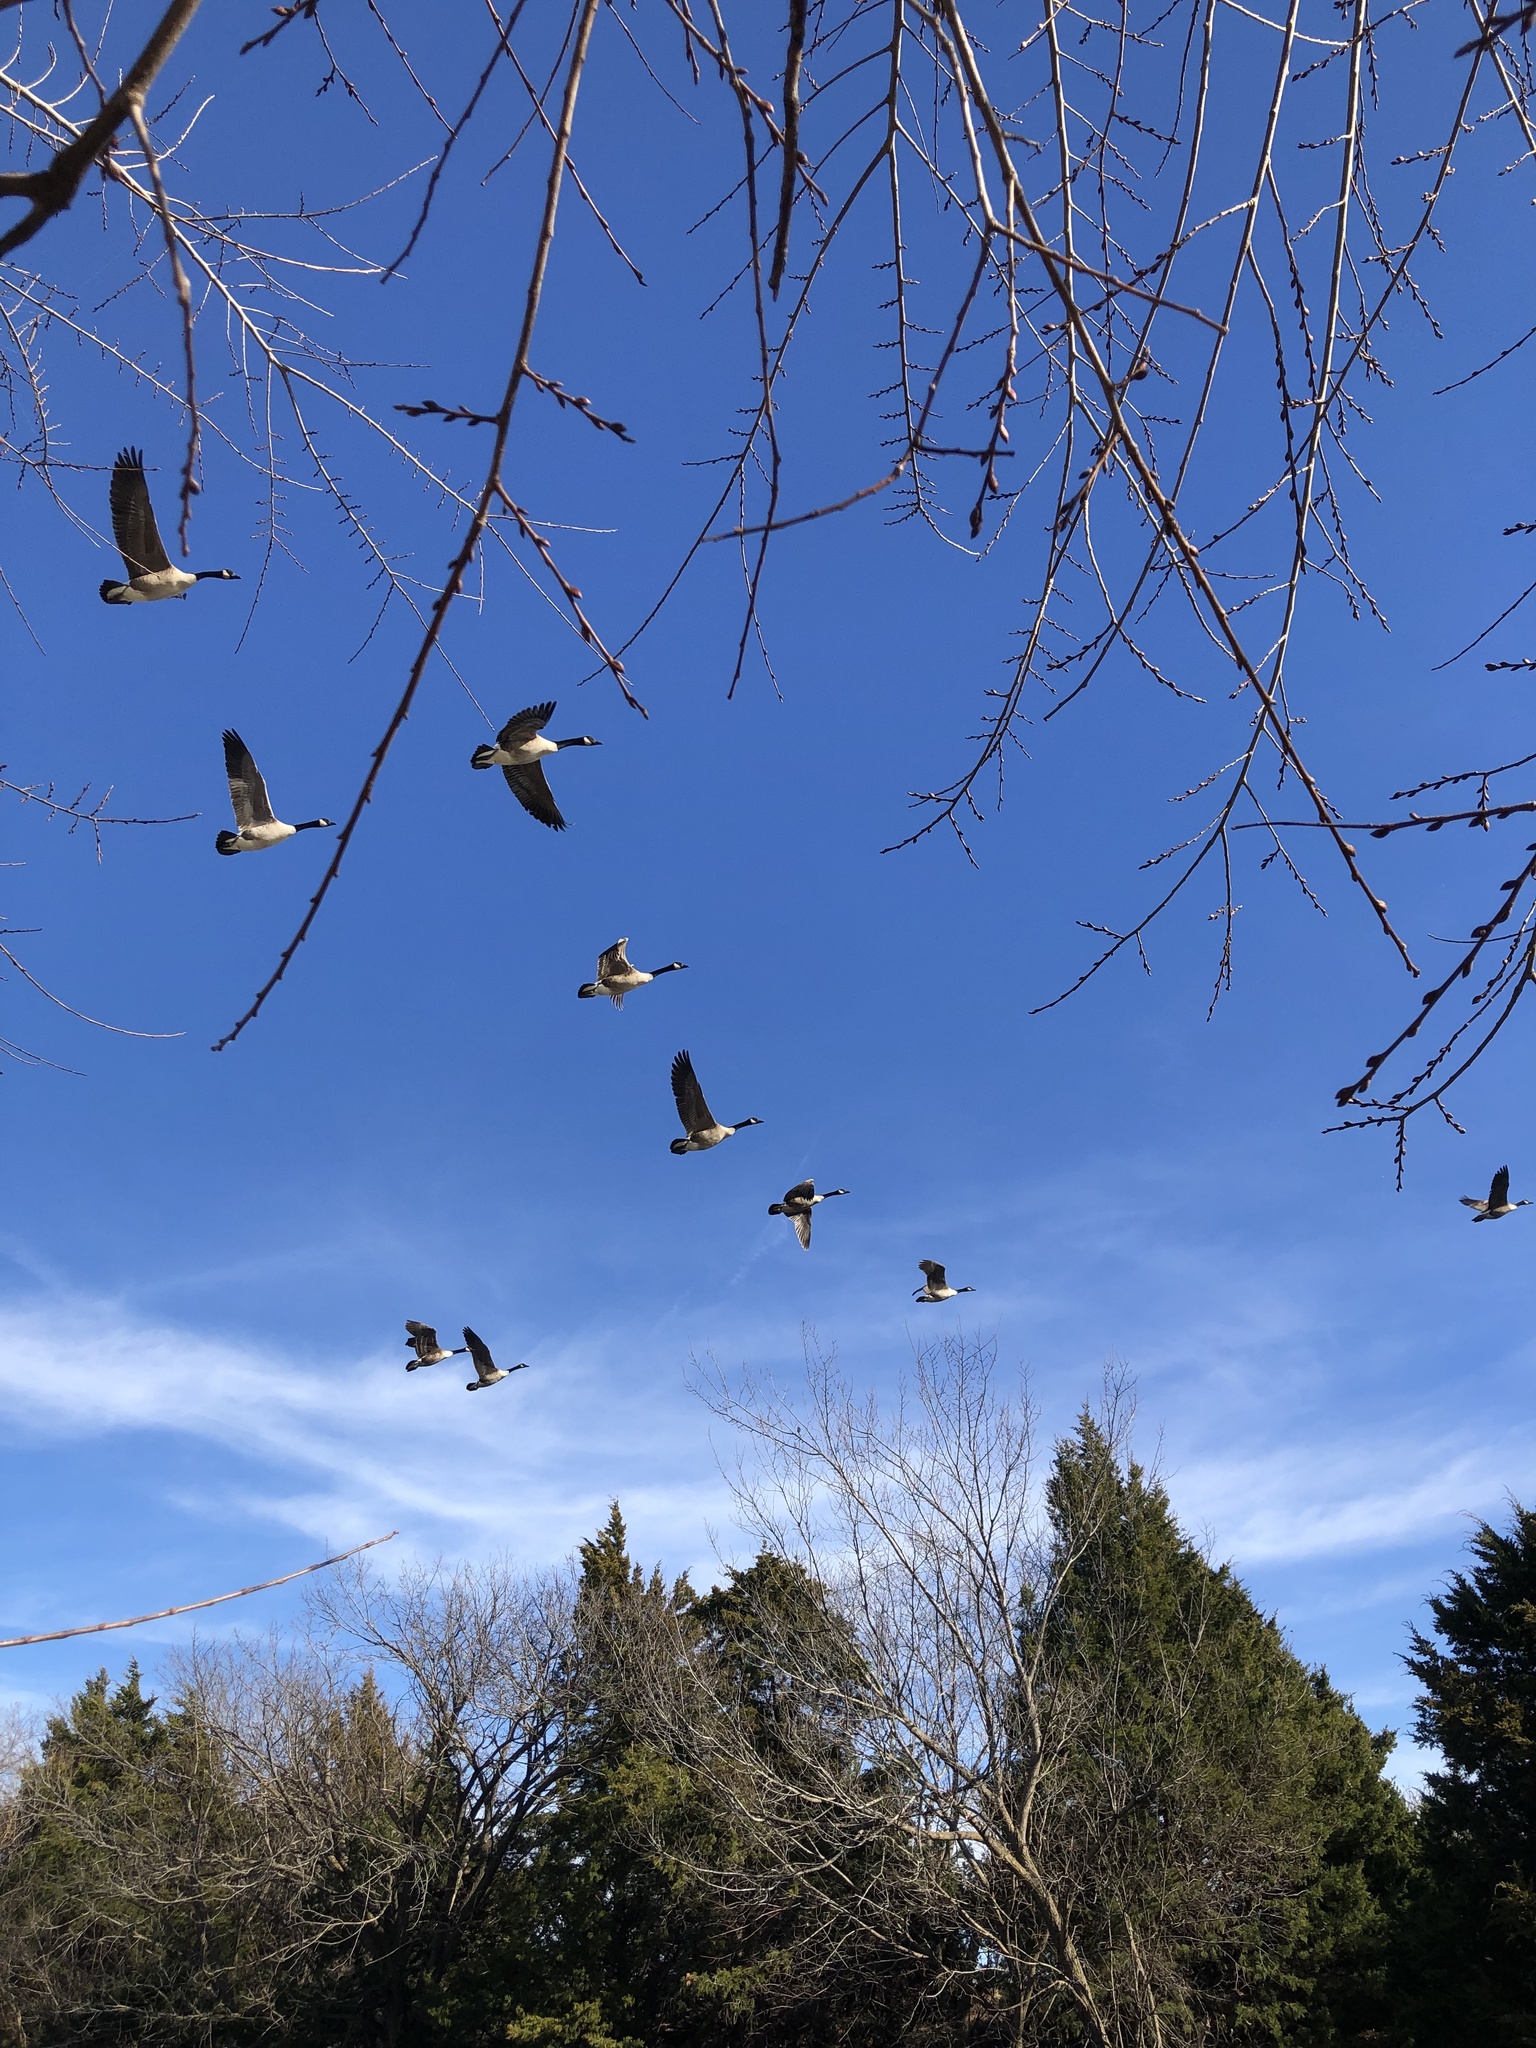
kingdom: Animalia
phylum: Chordata
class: Aves
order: Anseriformes
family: Anatidae
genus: Branta
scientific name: Branta canadensis
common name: Canada goose
